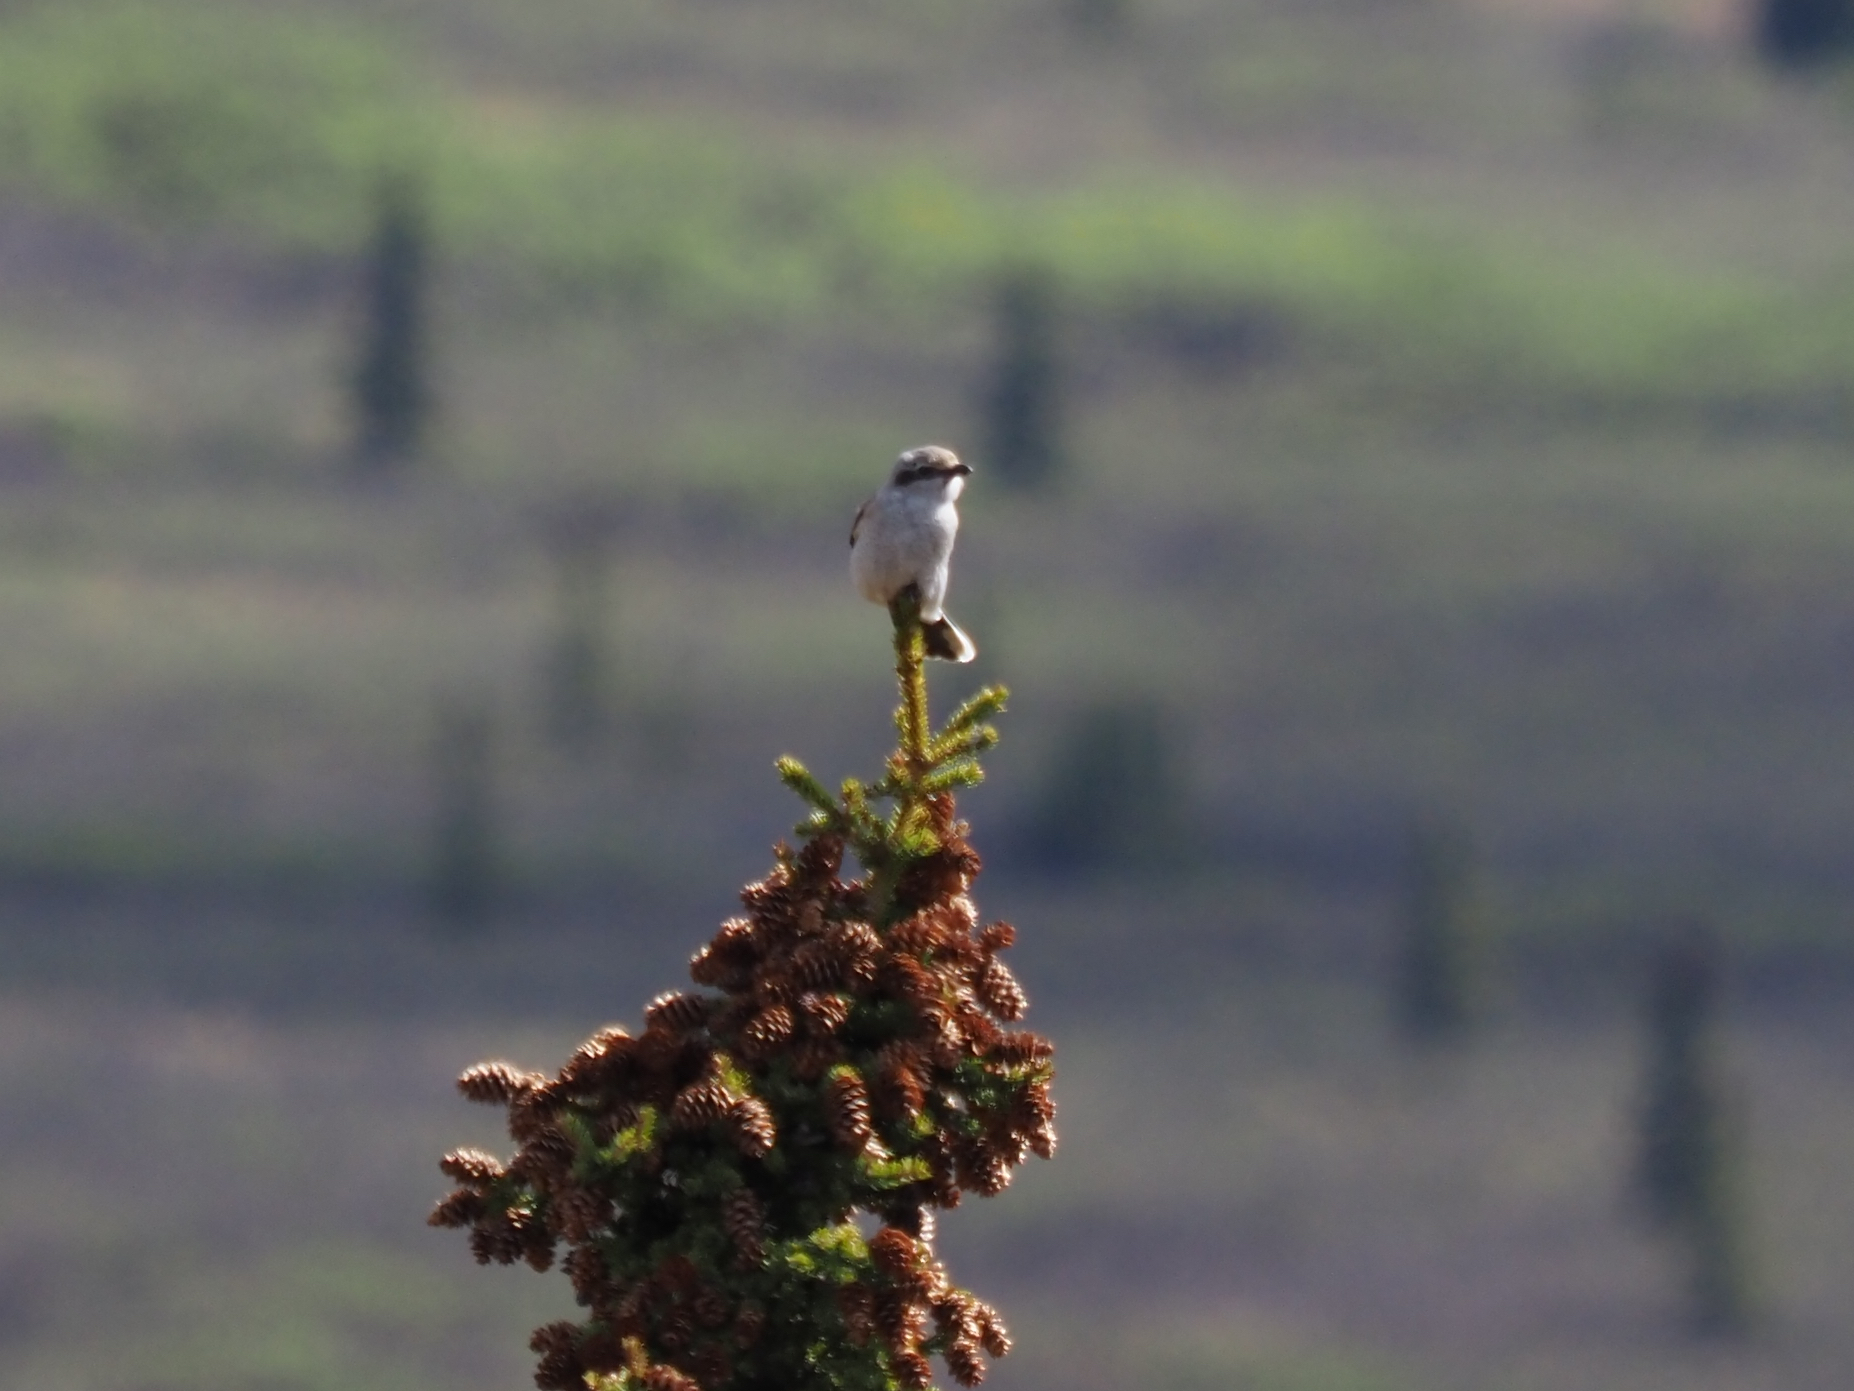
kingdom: Animalia
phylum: Chordata
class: Aves
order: Passeriformes
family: Laniidae
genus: Lanius
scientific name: Lanius borealis
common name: Northern shrike
